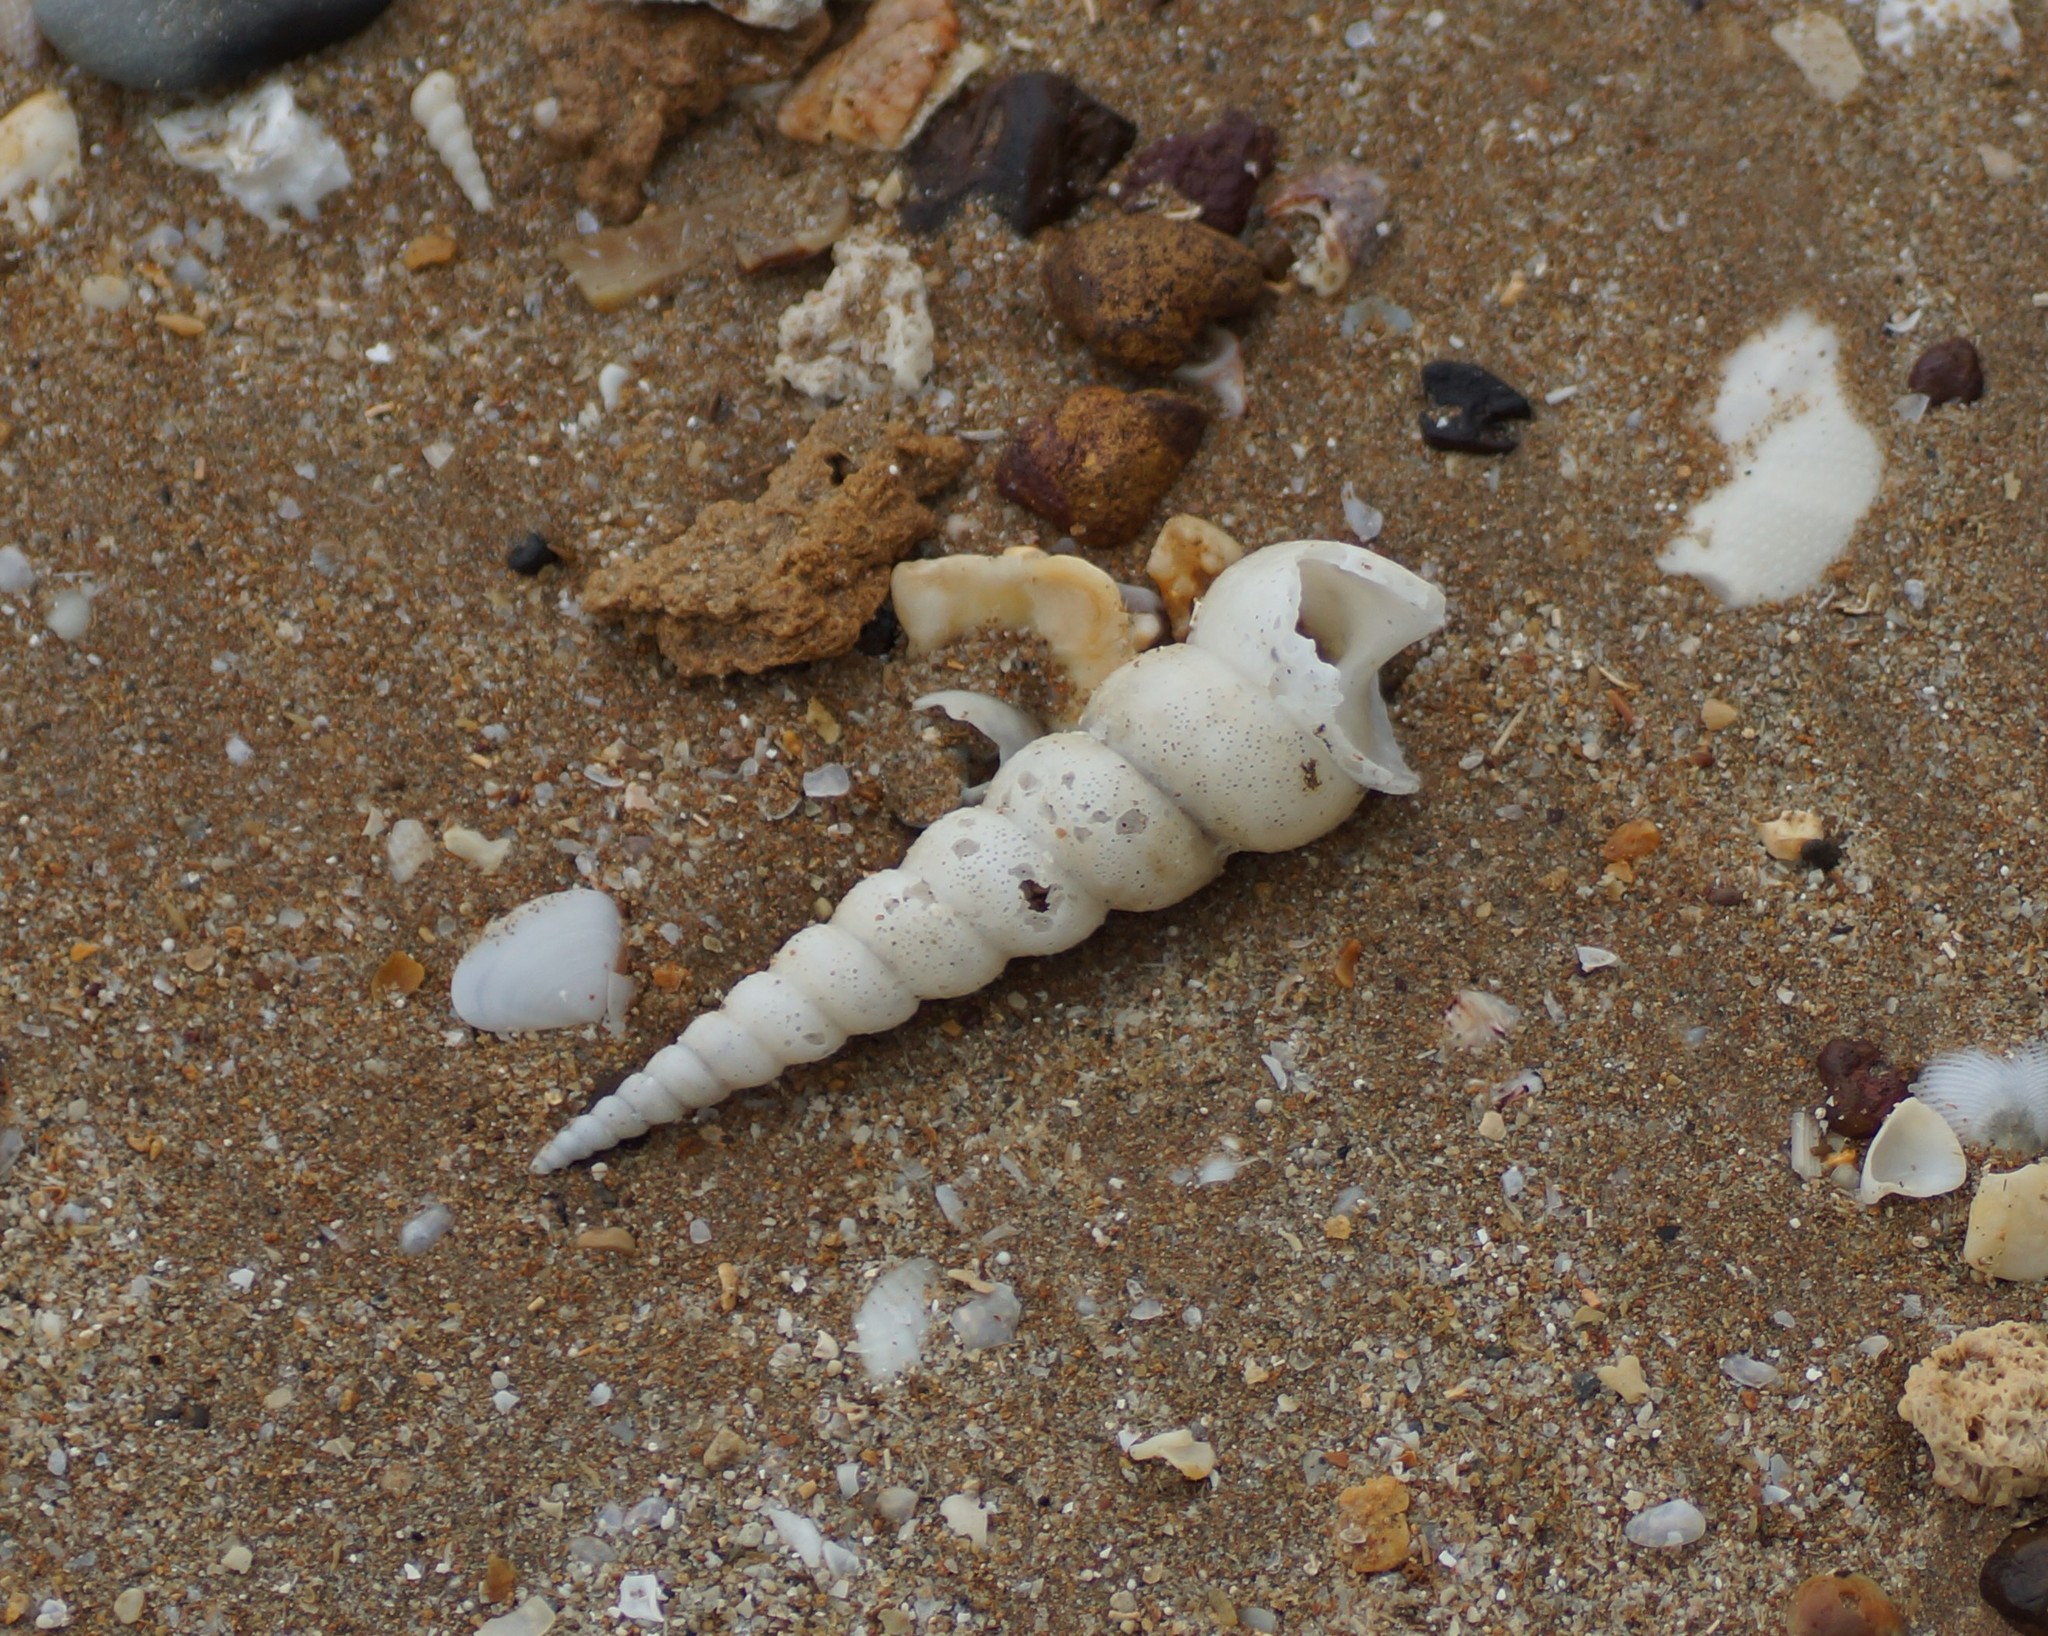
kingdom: Animalia
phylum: Mollusca
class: Gastropoda
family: Turritellidae
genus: Turritella
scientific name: Turritella terebra
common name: Auger screw shell
